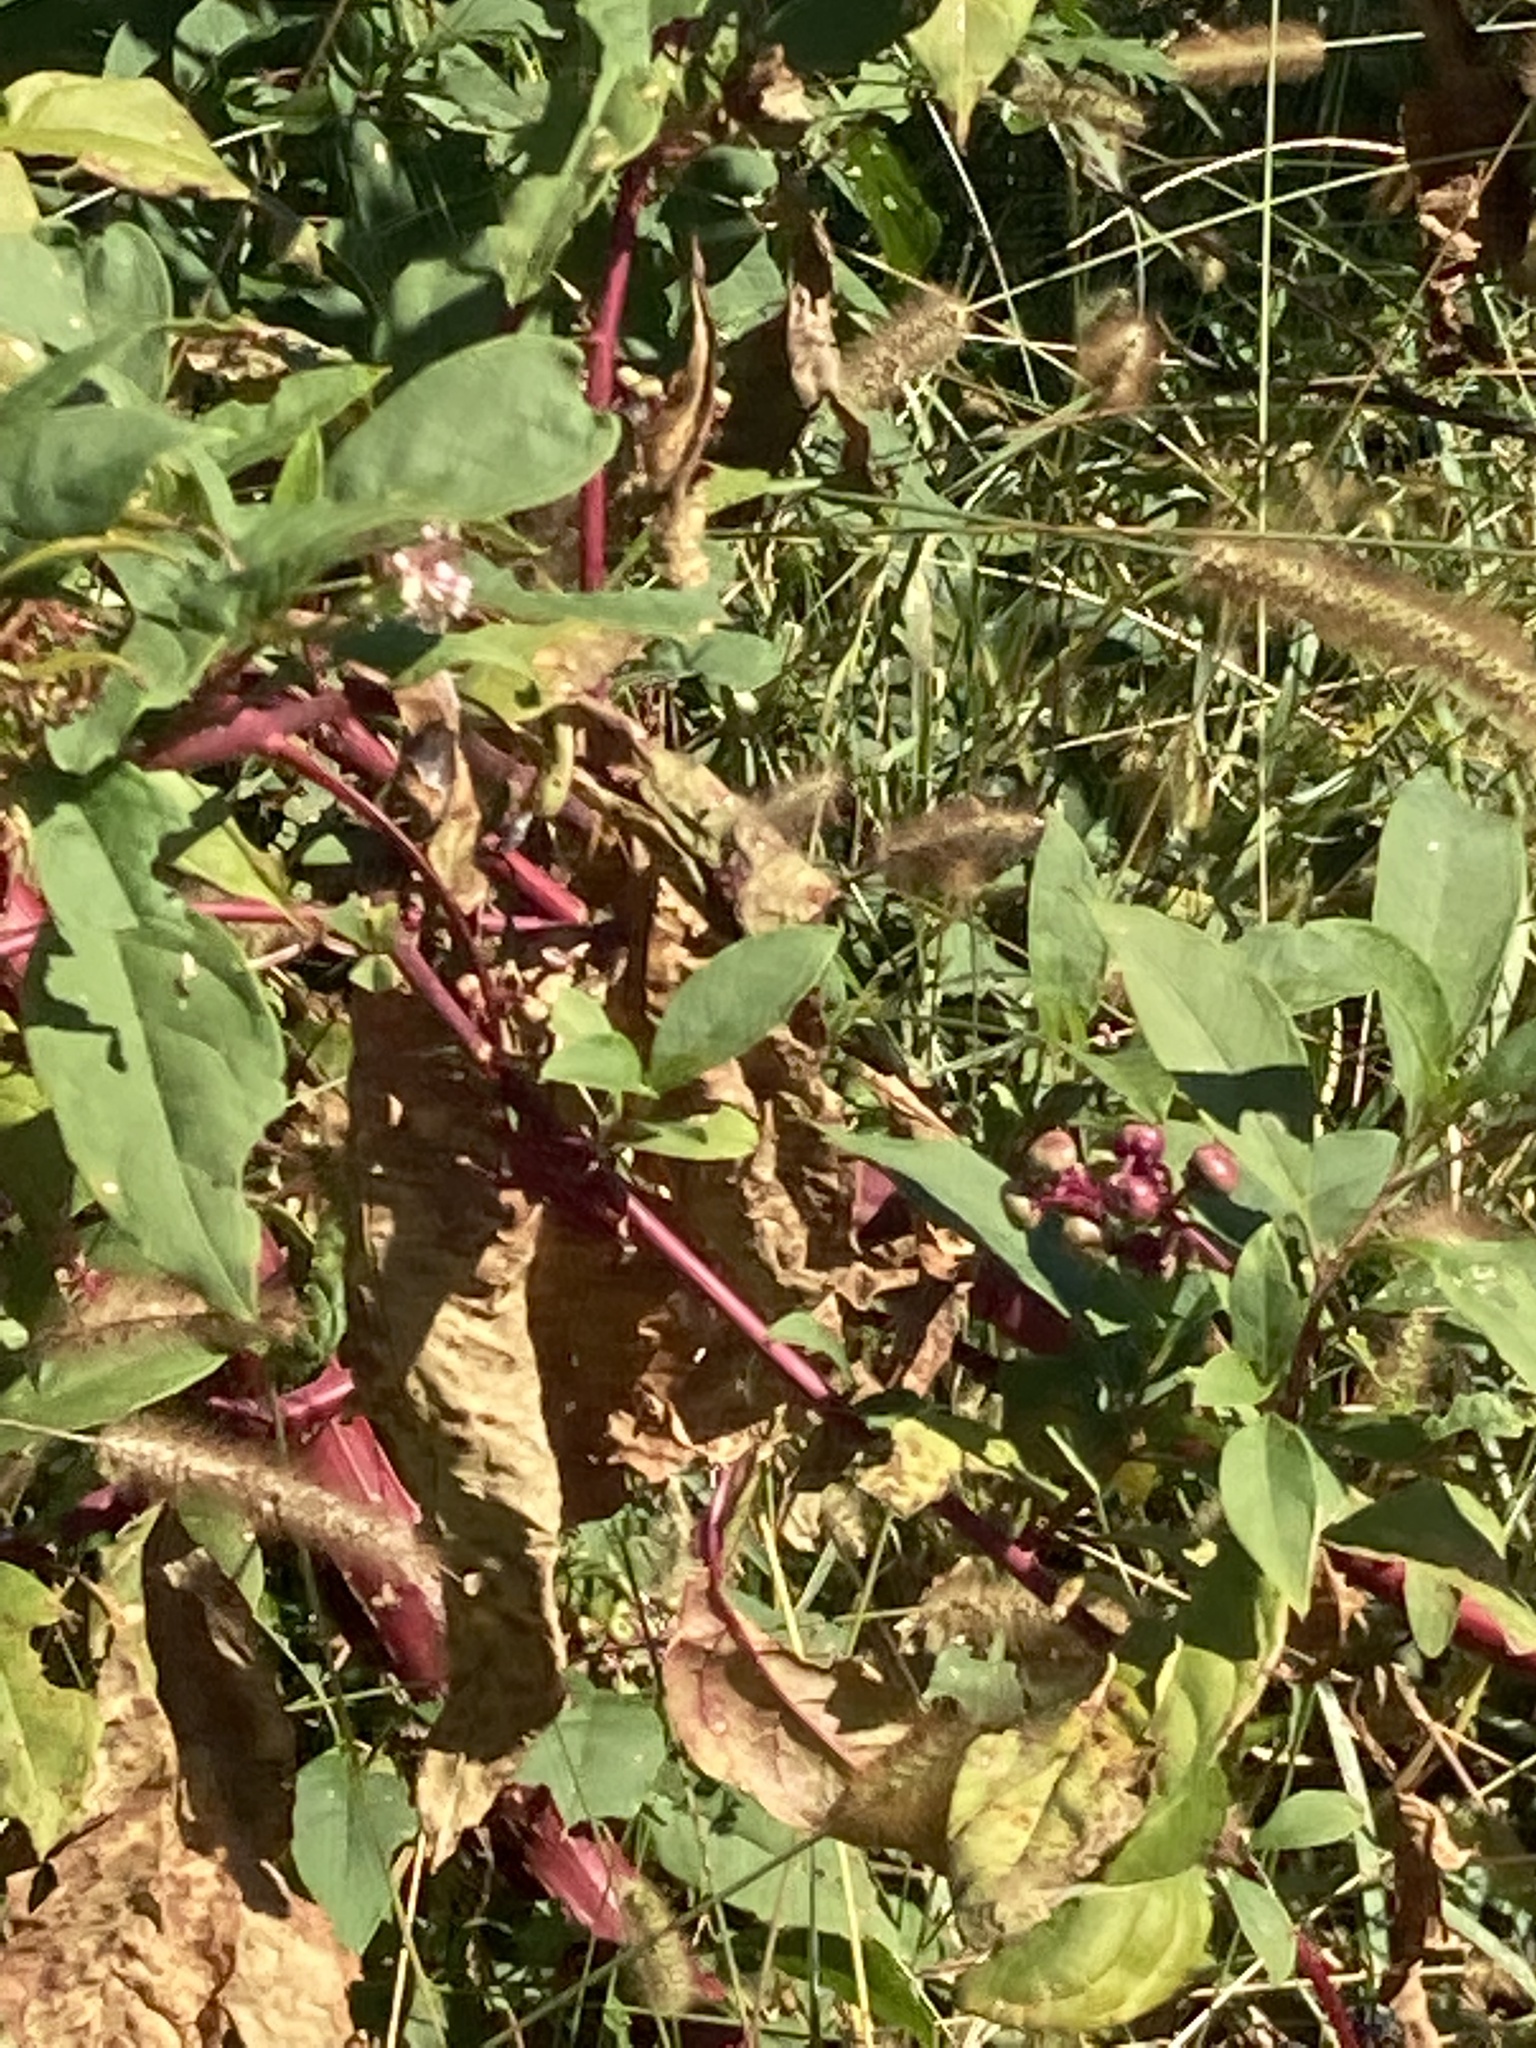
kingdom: Plantae
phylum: Tracheophyta
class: Magnoliopsida
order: Caryophyllales
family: Phytolaccaceae
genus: Phytolacca
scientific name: Phytolacca americana
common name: American pokeweed
